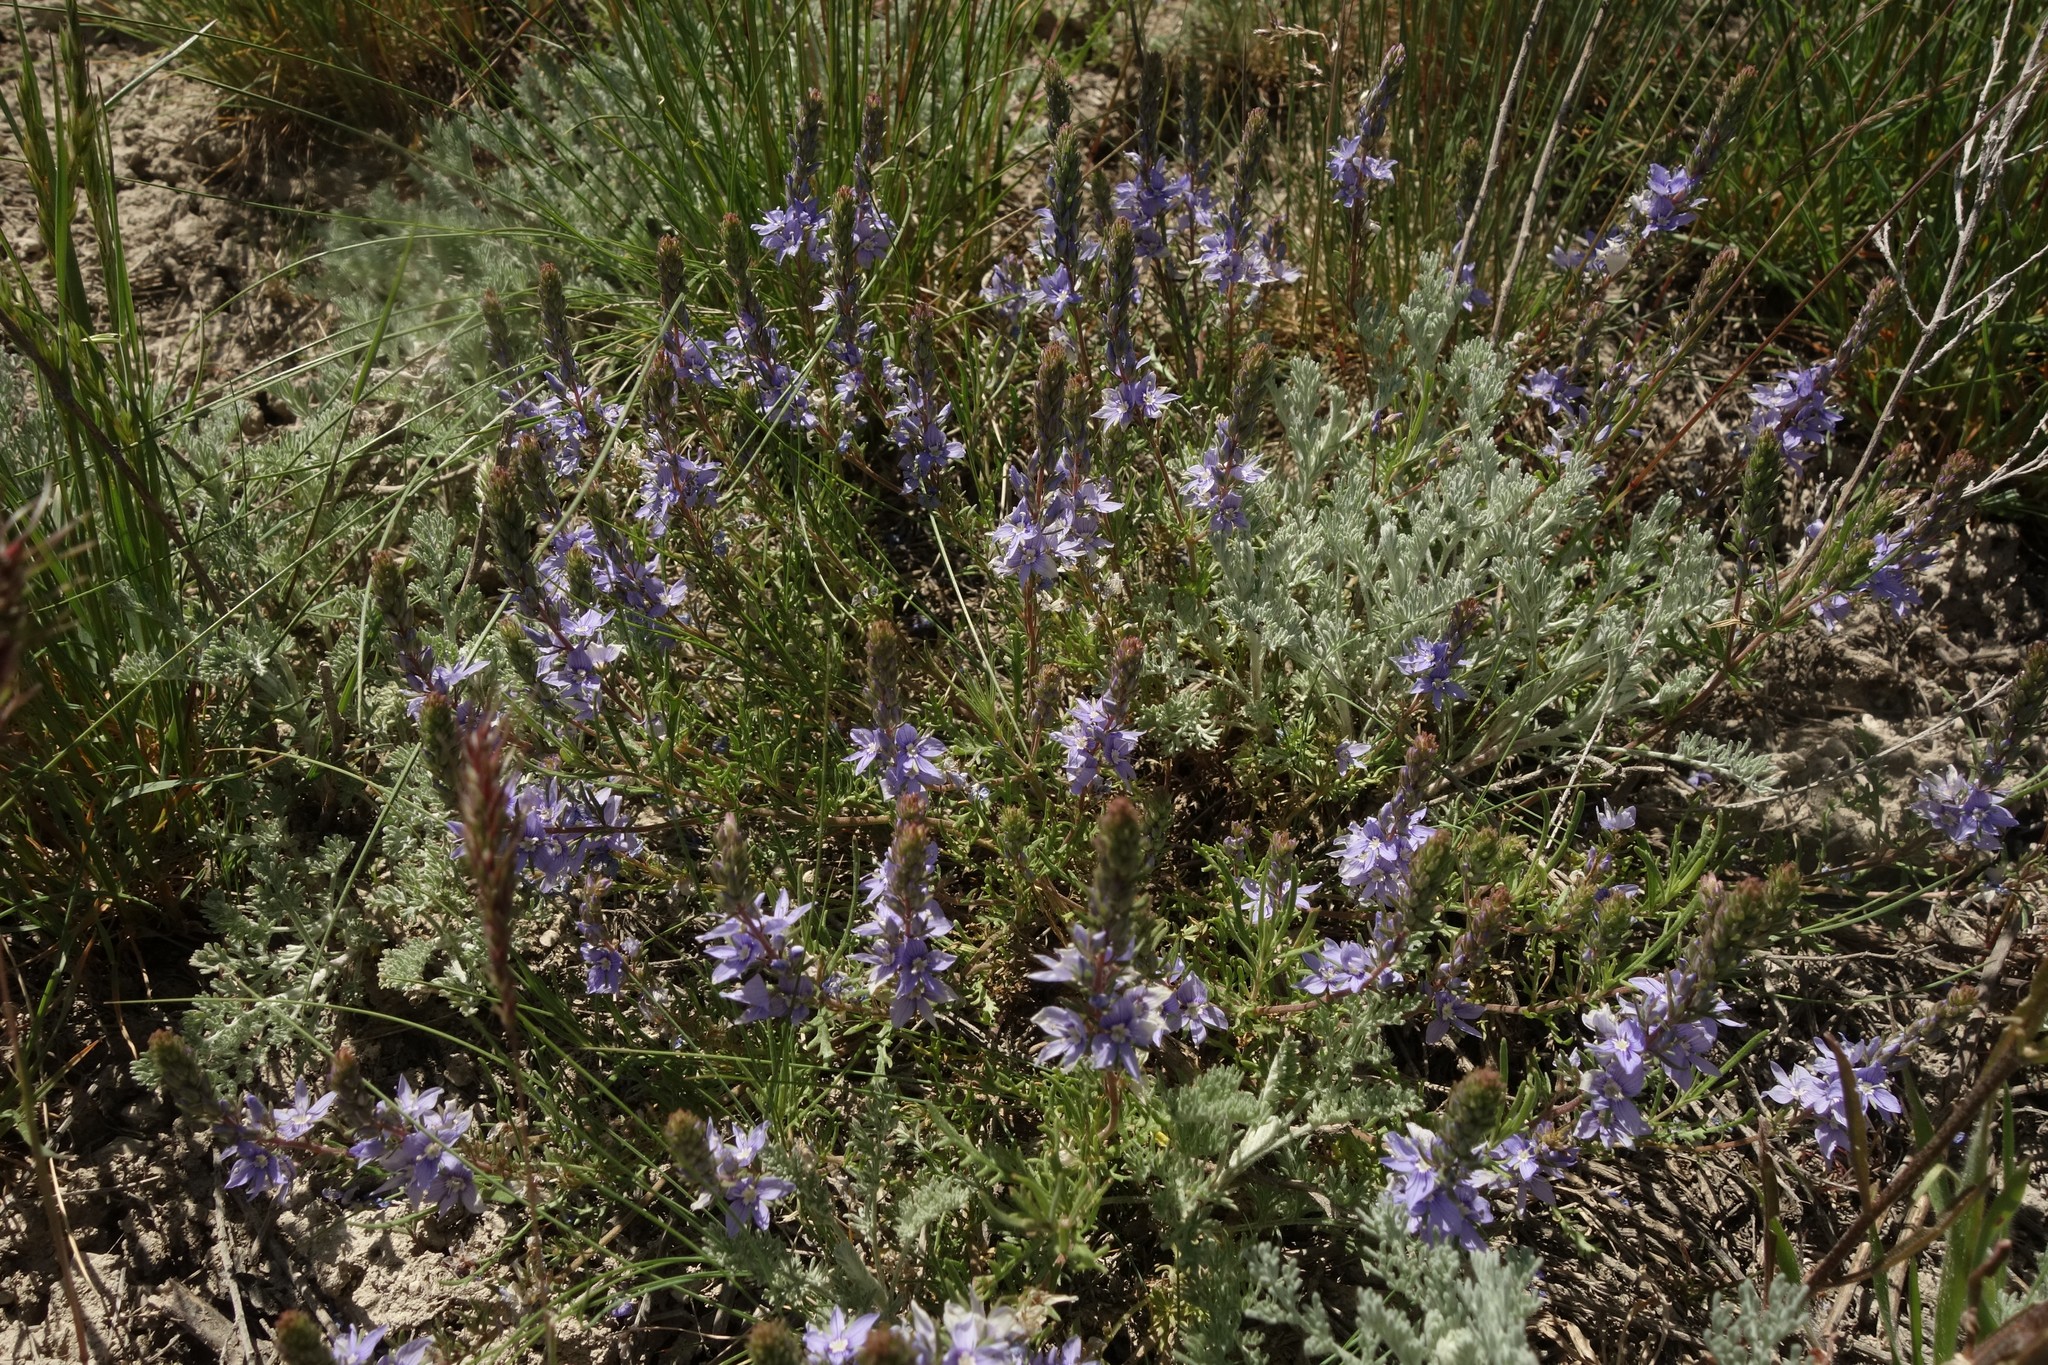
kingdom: Plantae
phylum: Tracheophyta
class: Magnoliopsida
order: Lamiales
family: Plantaginaceae
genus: Veronica
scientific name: Veronica multifida
